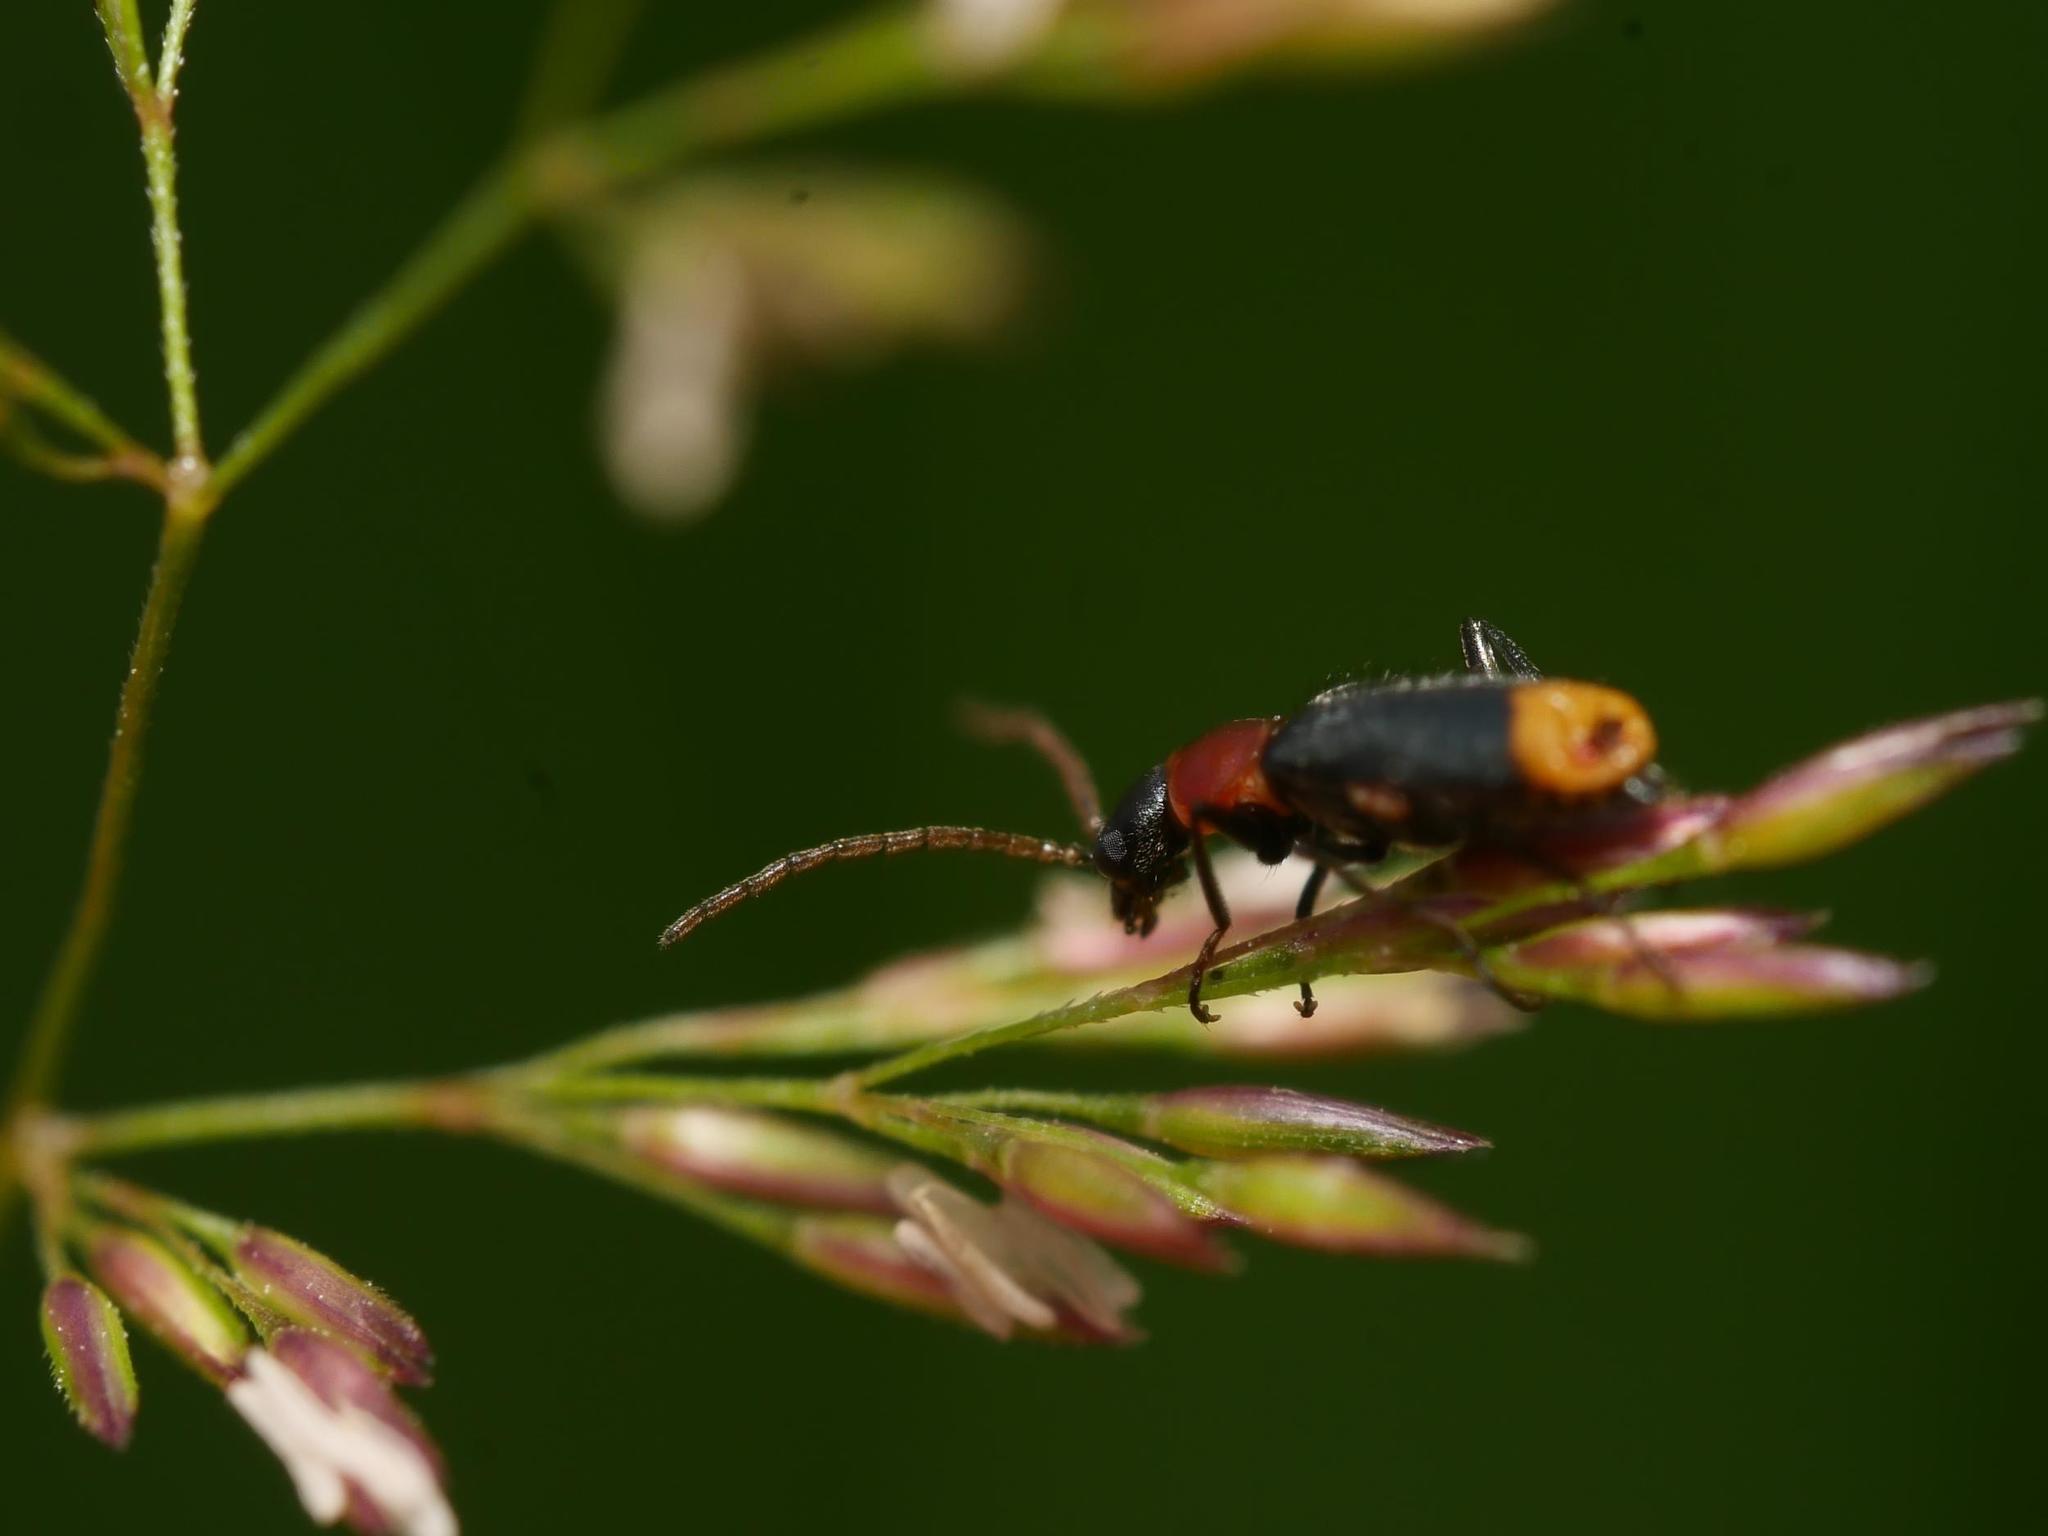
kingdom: Animalia
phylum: Arthropoda
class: Insecta
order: Coleoptera
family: Melyridae
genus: Axinotarsus
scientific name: Axinotarsus ruficollis
